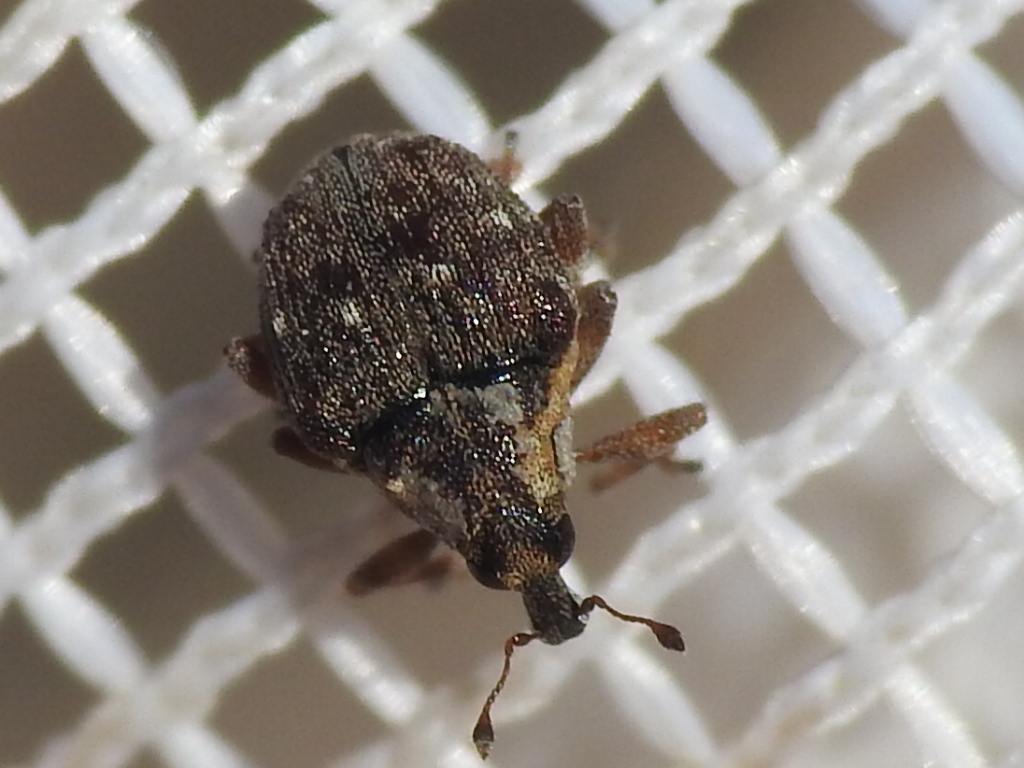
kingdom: Animalia
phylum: Arthropoda
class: Insecta
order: Coleoptera
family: Curculionidae
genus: Perigaster
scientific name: Perigaster cretura
